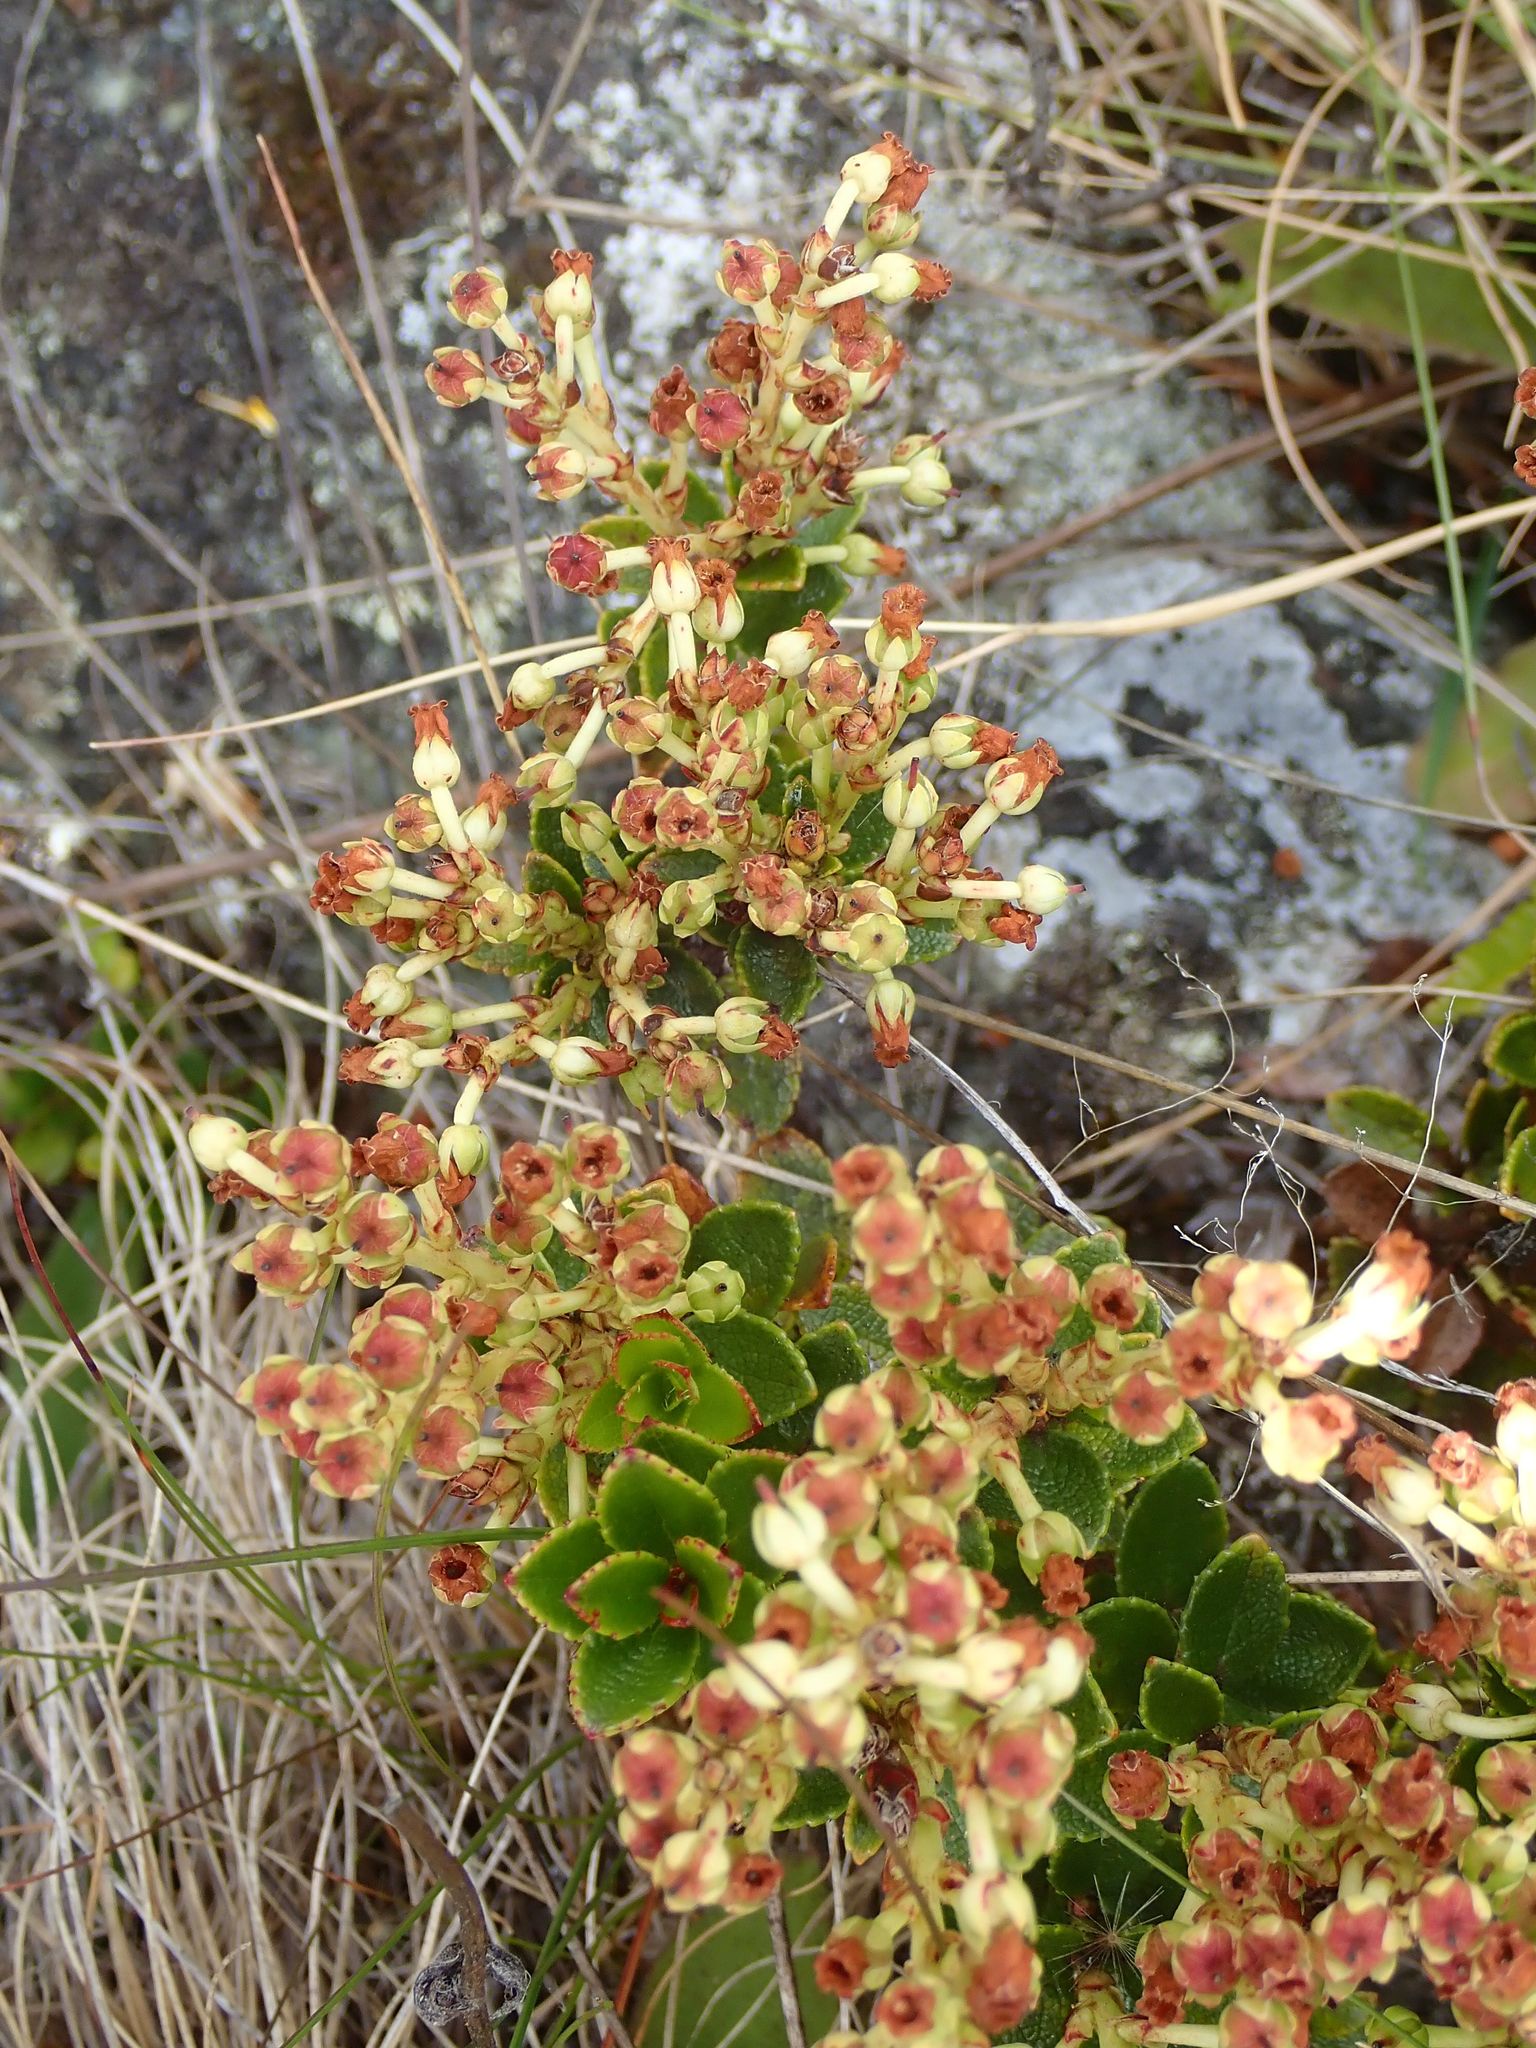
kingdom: Plantae
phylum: Tracheophyta
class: Magnoliopsida
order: Ericales
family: Ericaceae
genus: Gaultheria
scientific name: Gaultheria crassa
